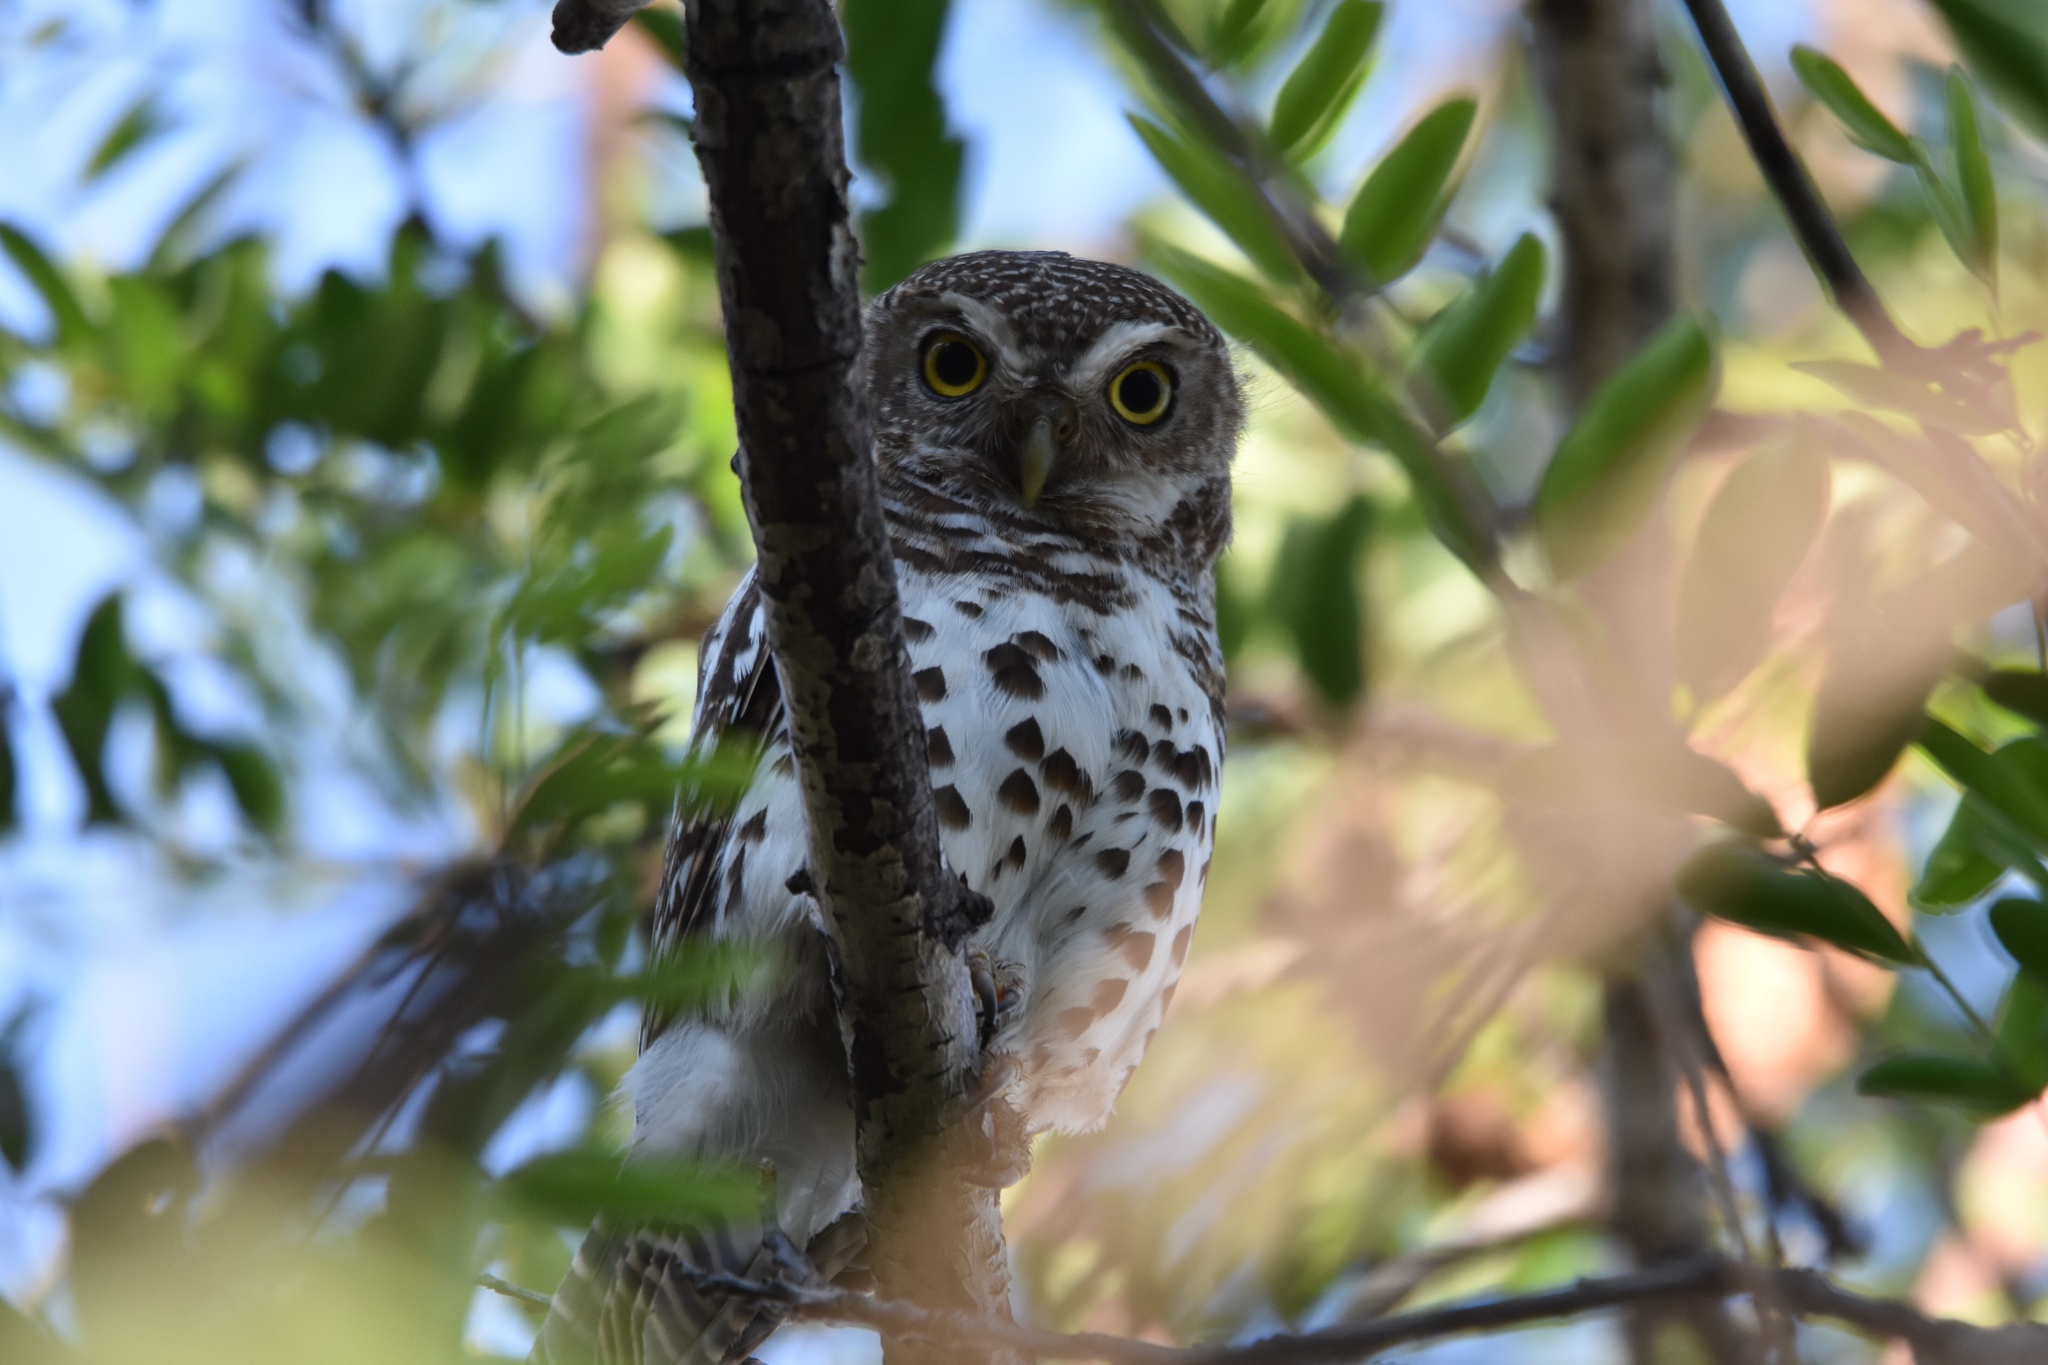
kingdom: Animalia
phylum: Chordata
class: Aves
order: Strigiformes
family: Strigidae
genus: Glaucidium
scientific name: Glaucidium capense
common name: African barred owlet
